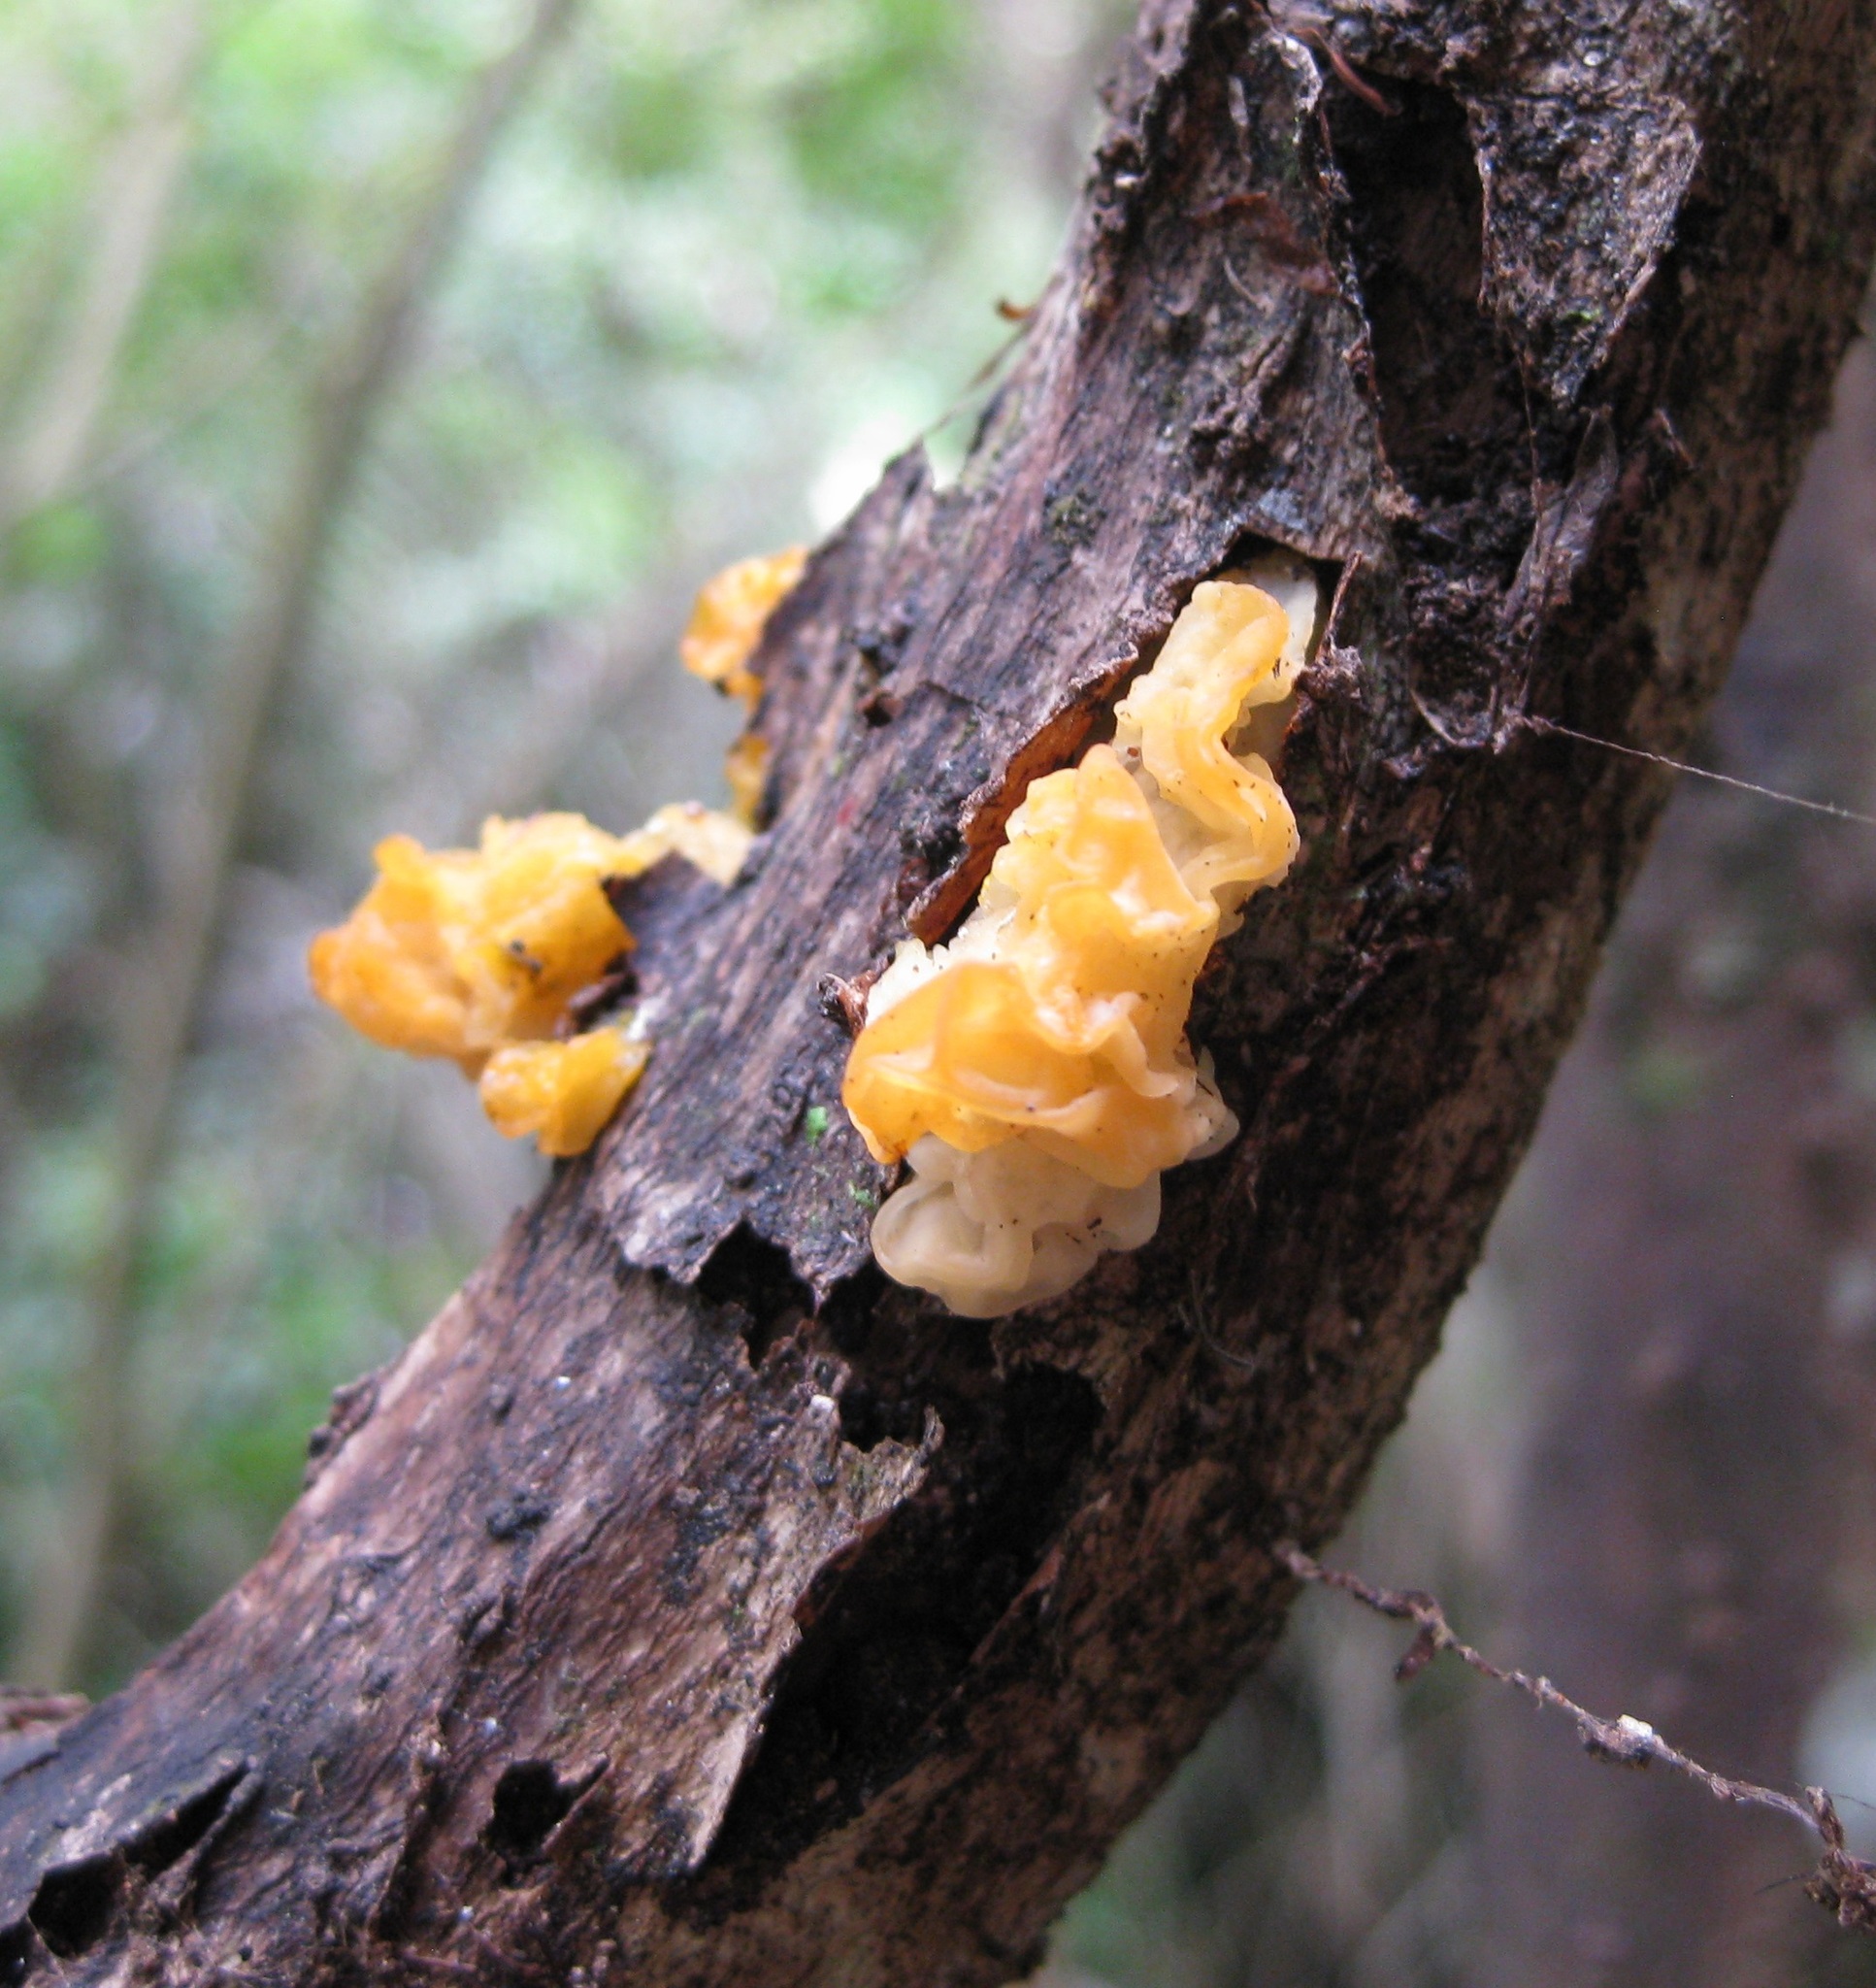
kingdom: Fungi
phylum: Basidiomycota
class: Tremellomycetes
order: Tremellales
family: Tremellaceae
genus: Tremella
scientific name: Tremella mesenterica
